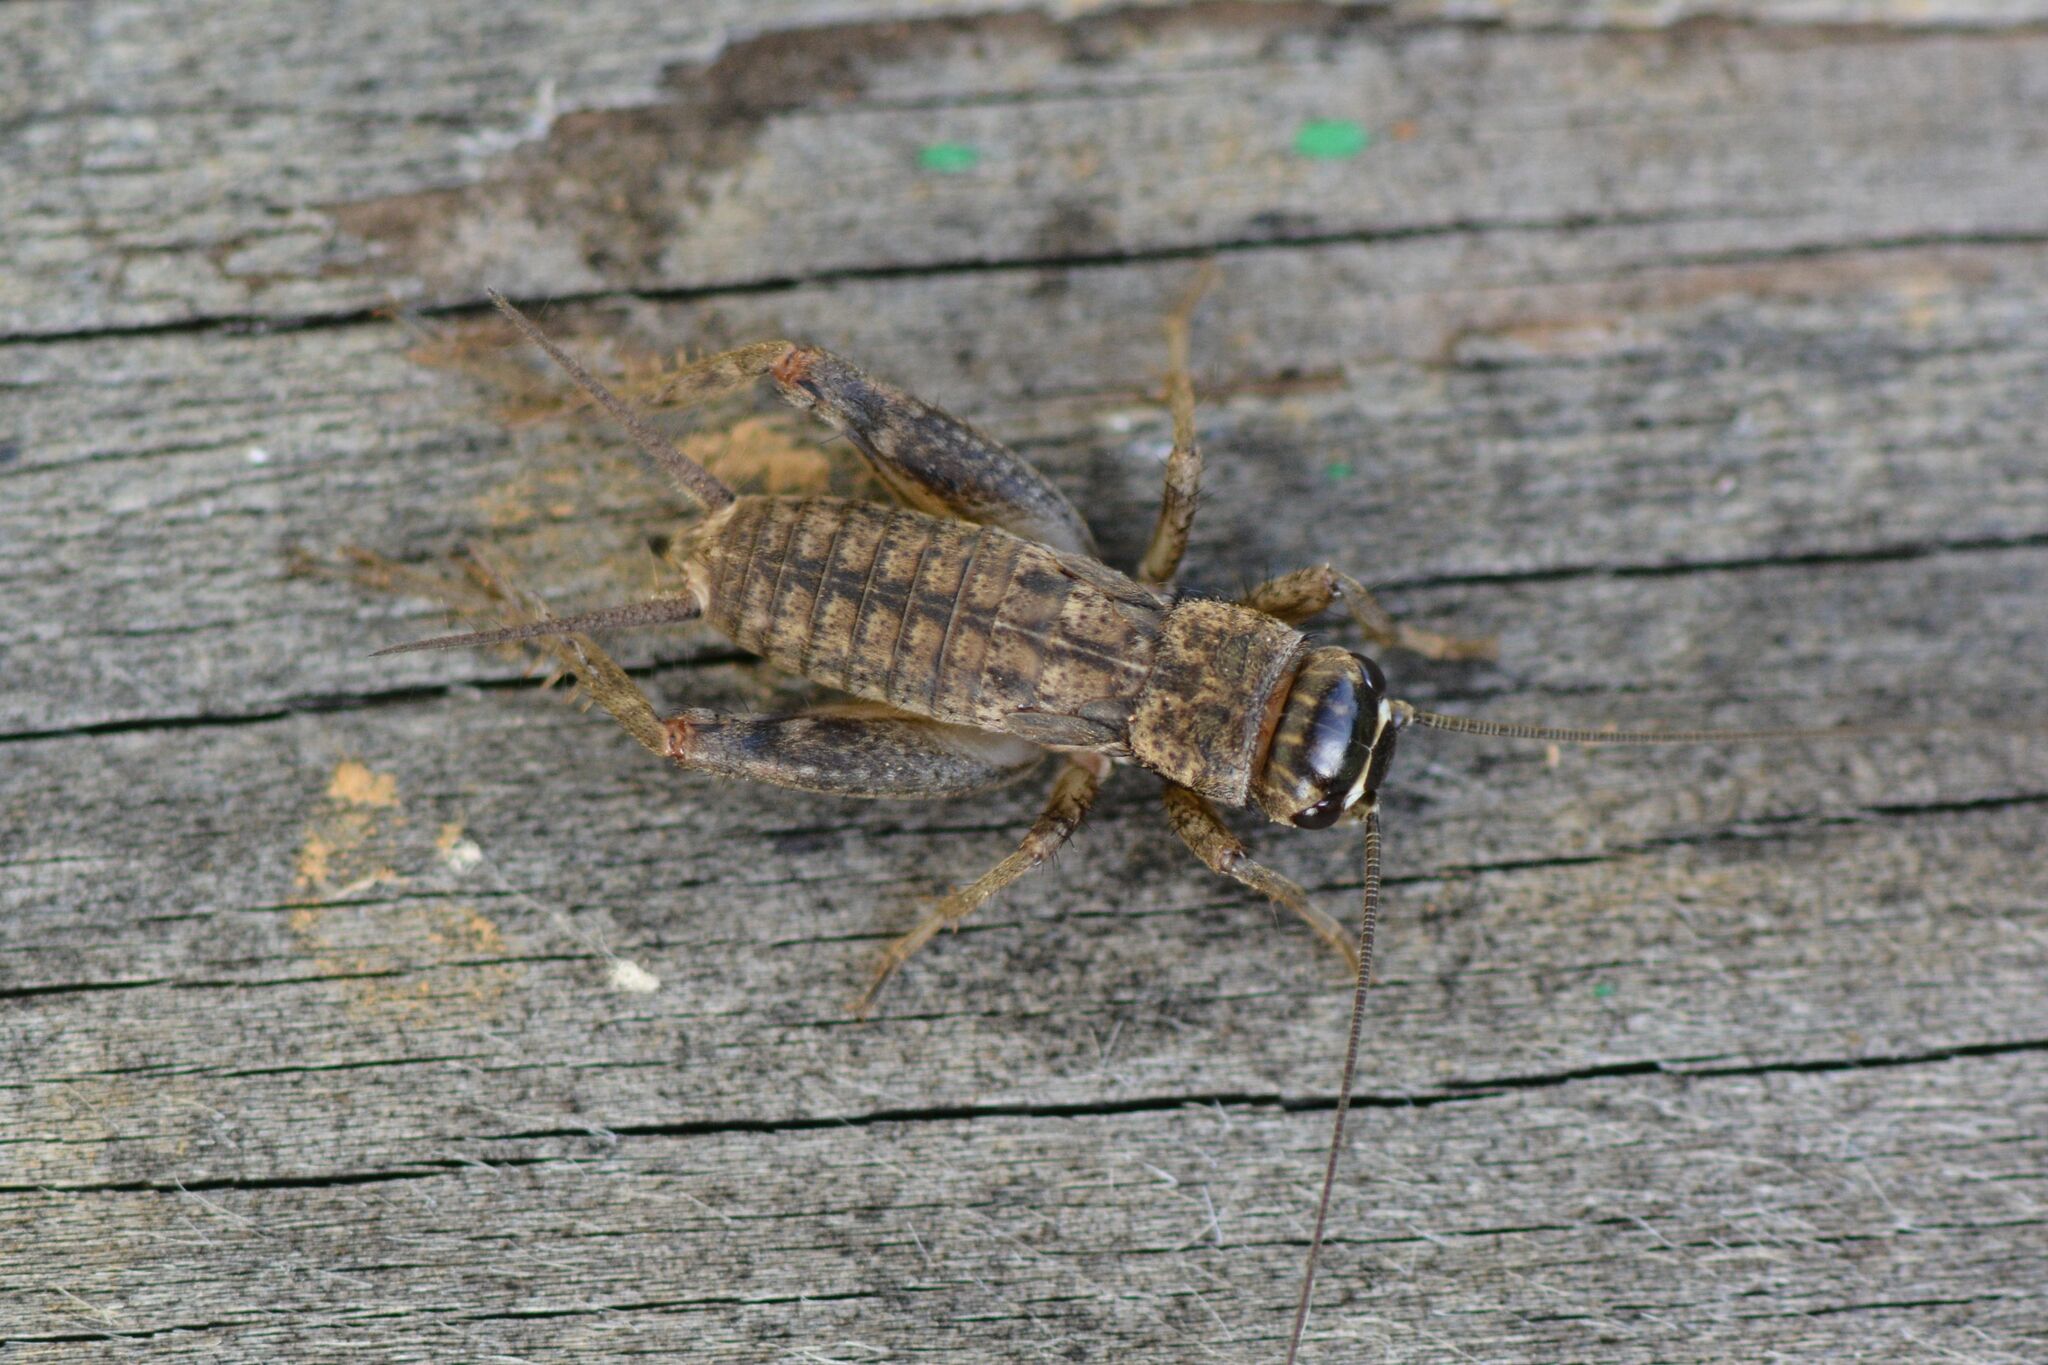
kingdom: Animalia
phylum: Arthropoda
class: Insecta
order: Orthoptera
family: Gryllidae
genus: Eumodicogryllus
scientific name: Eumodicogryllus bordigalensis
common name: Bordeaux cricket
